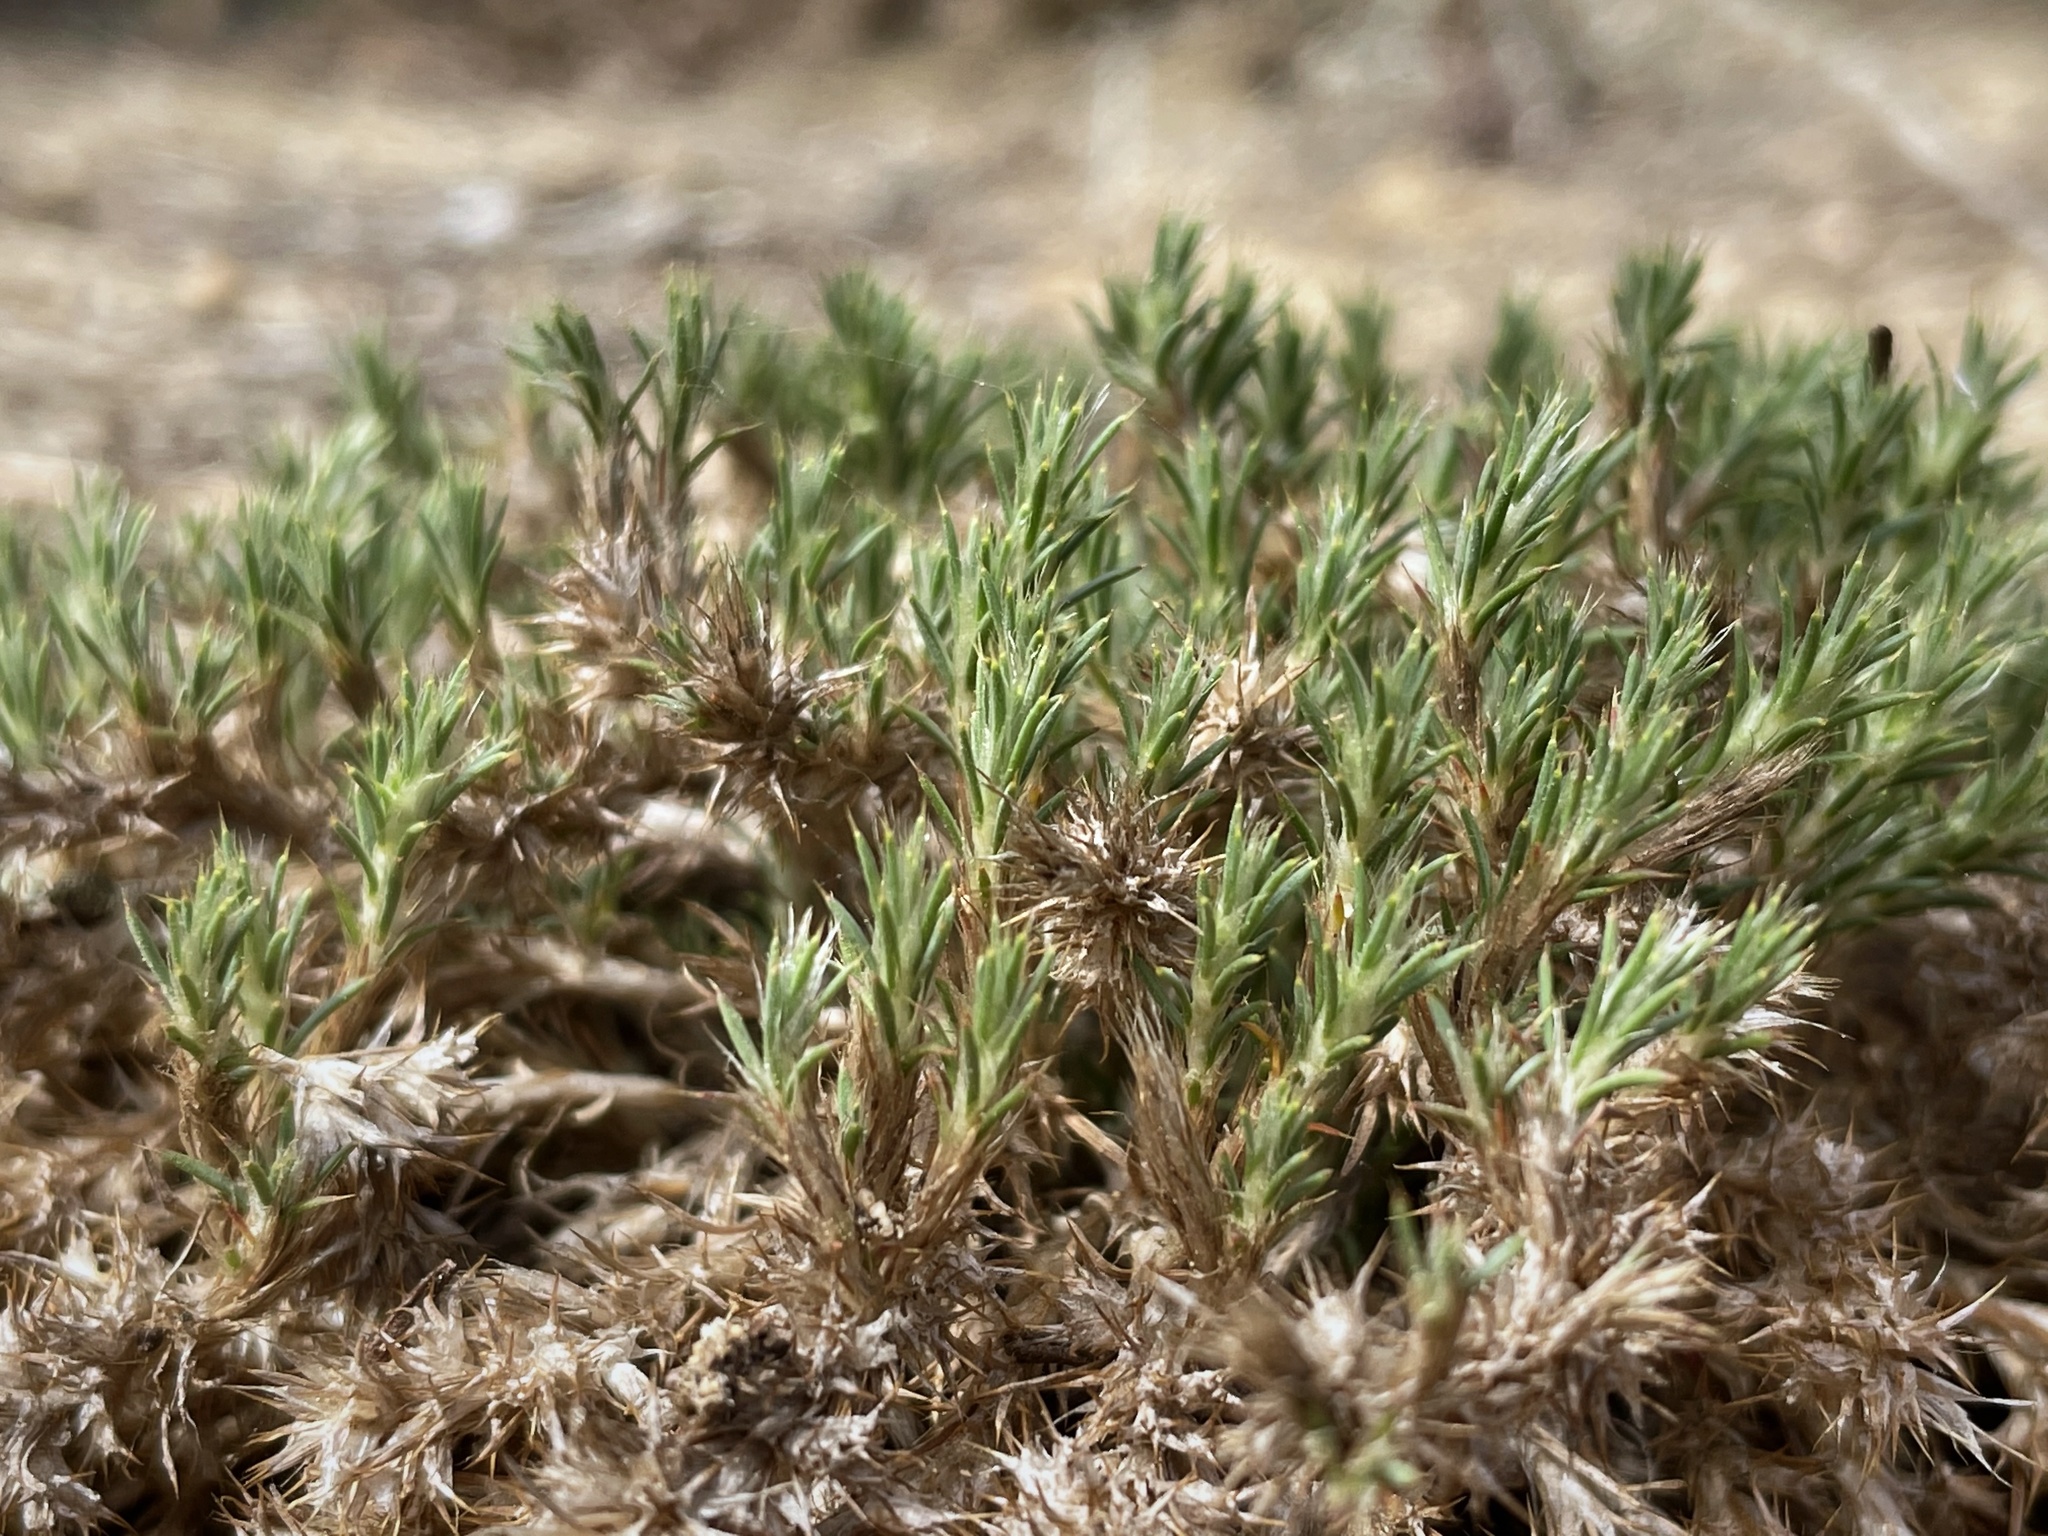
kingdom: Plantae
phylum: Tracheophyta
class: Magnoliopsida
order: Caryophyllales
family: Caryophyllaceae
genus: Cardionema
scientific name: Cardionema ramosissima
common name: Sandcarpet
